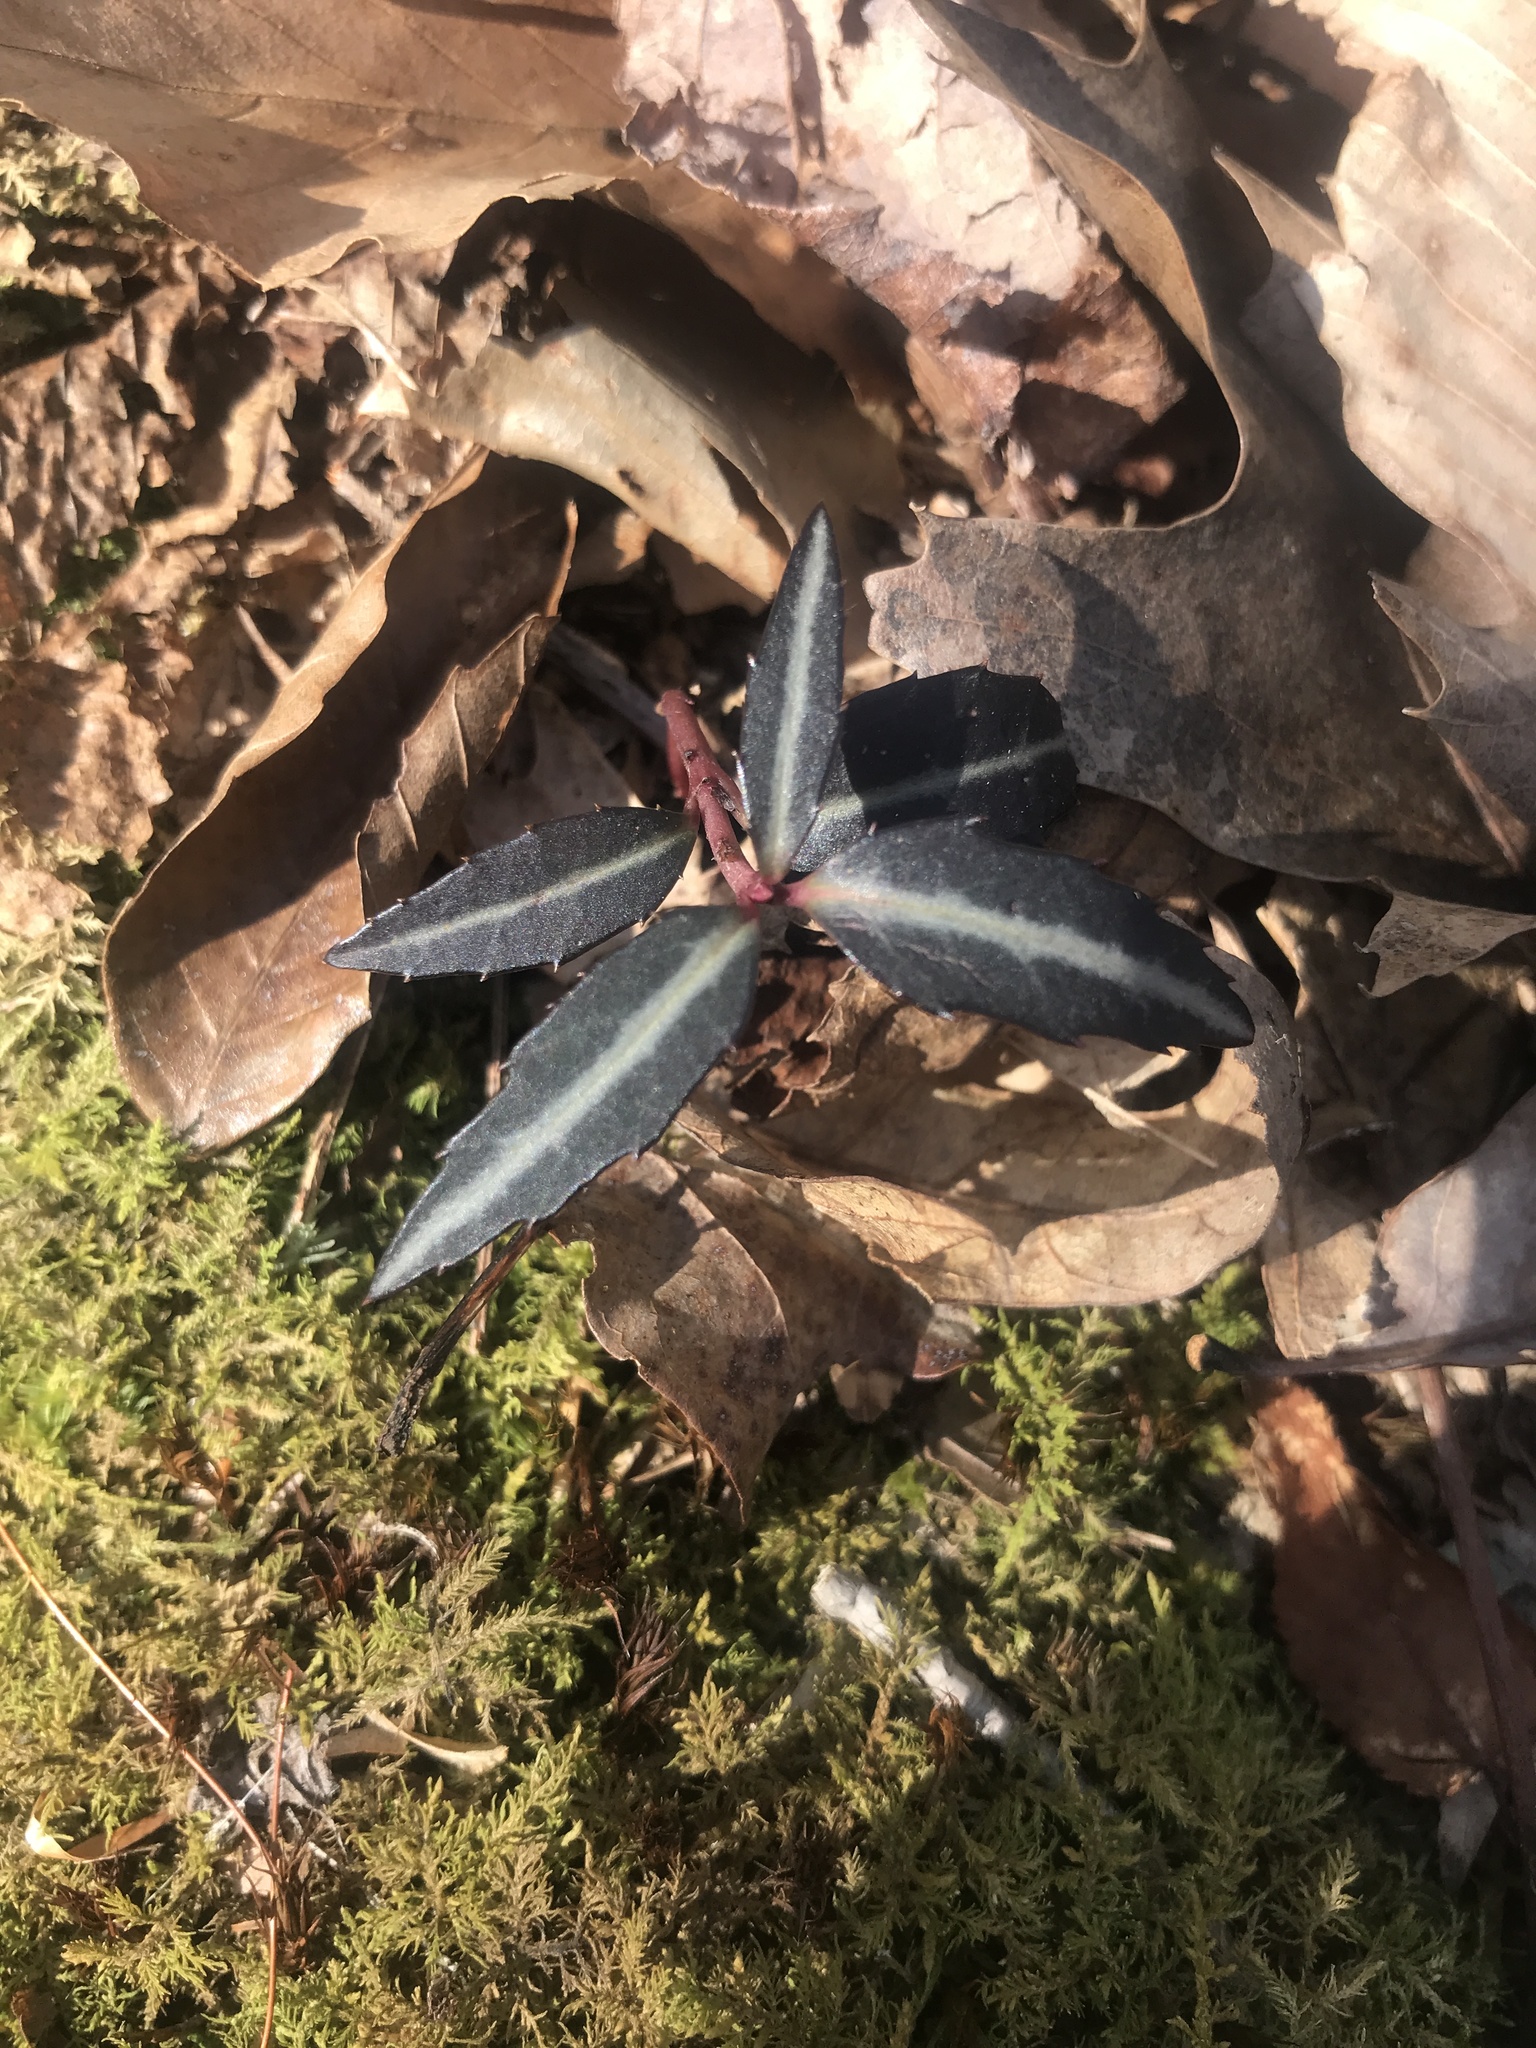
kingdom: Plantae
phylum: Tracheophyta
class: Magnoliopsida
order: Ericales
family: Ericaceae
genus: Chimaphila
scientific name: Chimaphila maculata
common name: Spotted pipsissewa
